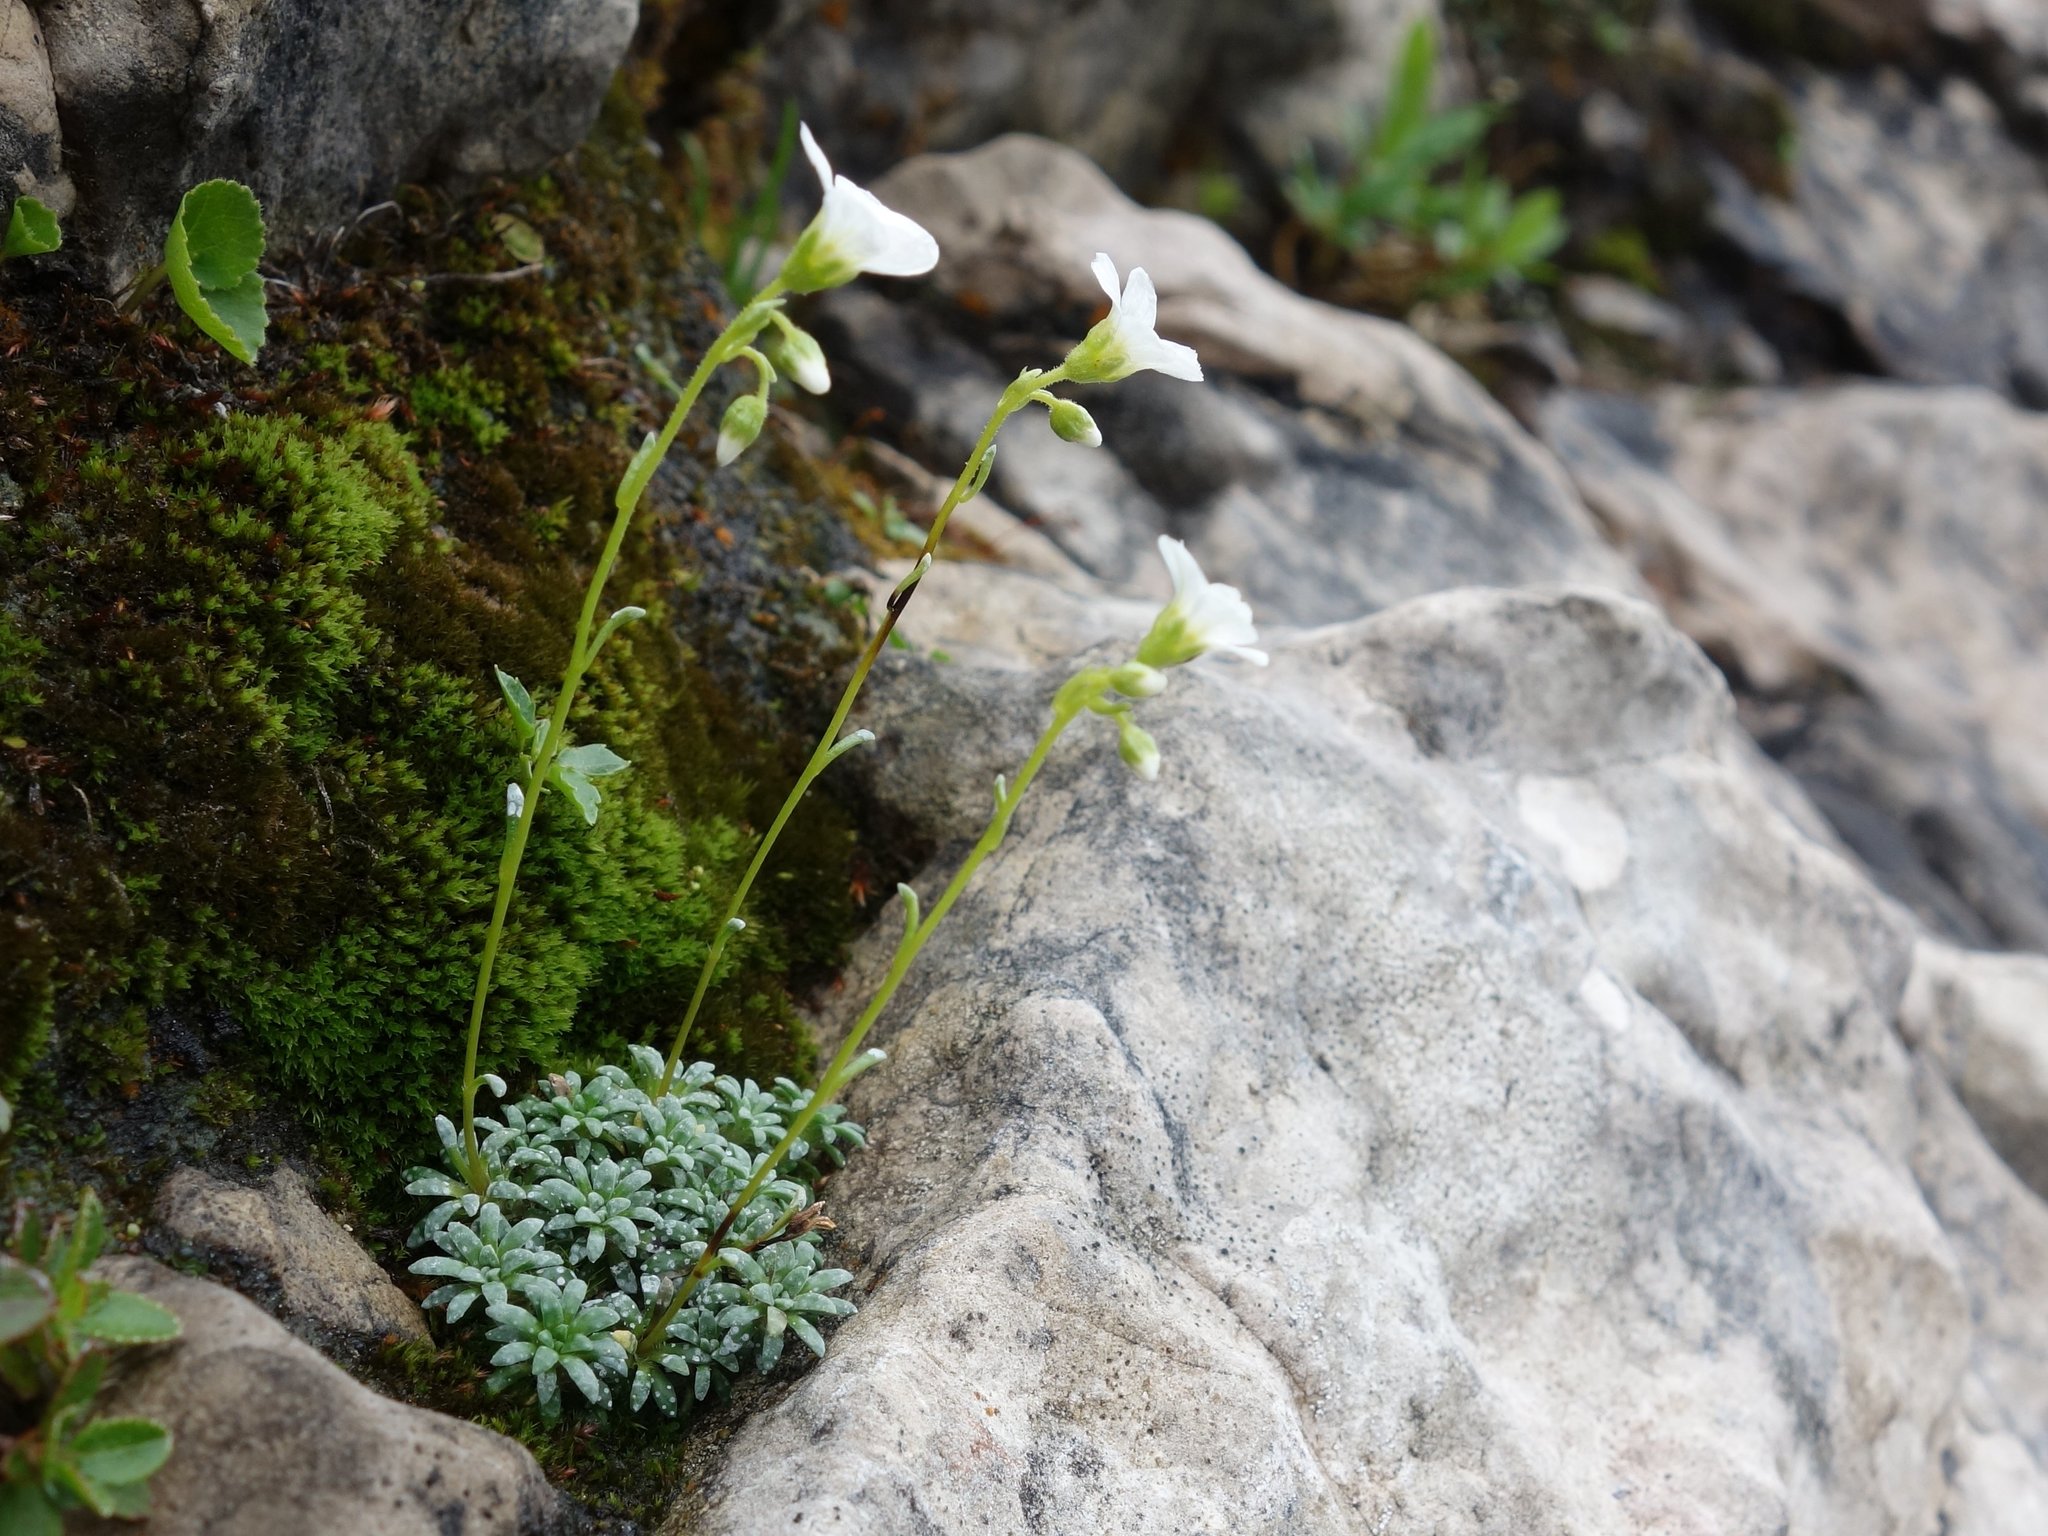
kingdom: Plantae
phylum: Tracheophyta
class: Magnoliopsida
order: Saxifragales
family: Saxifragaceae
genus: Saxifraga
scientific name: Saxifraga caesia
